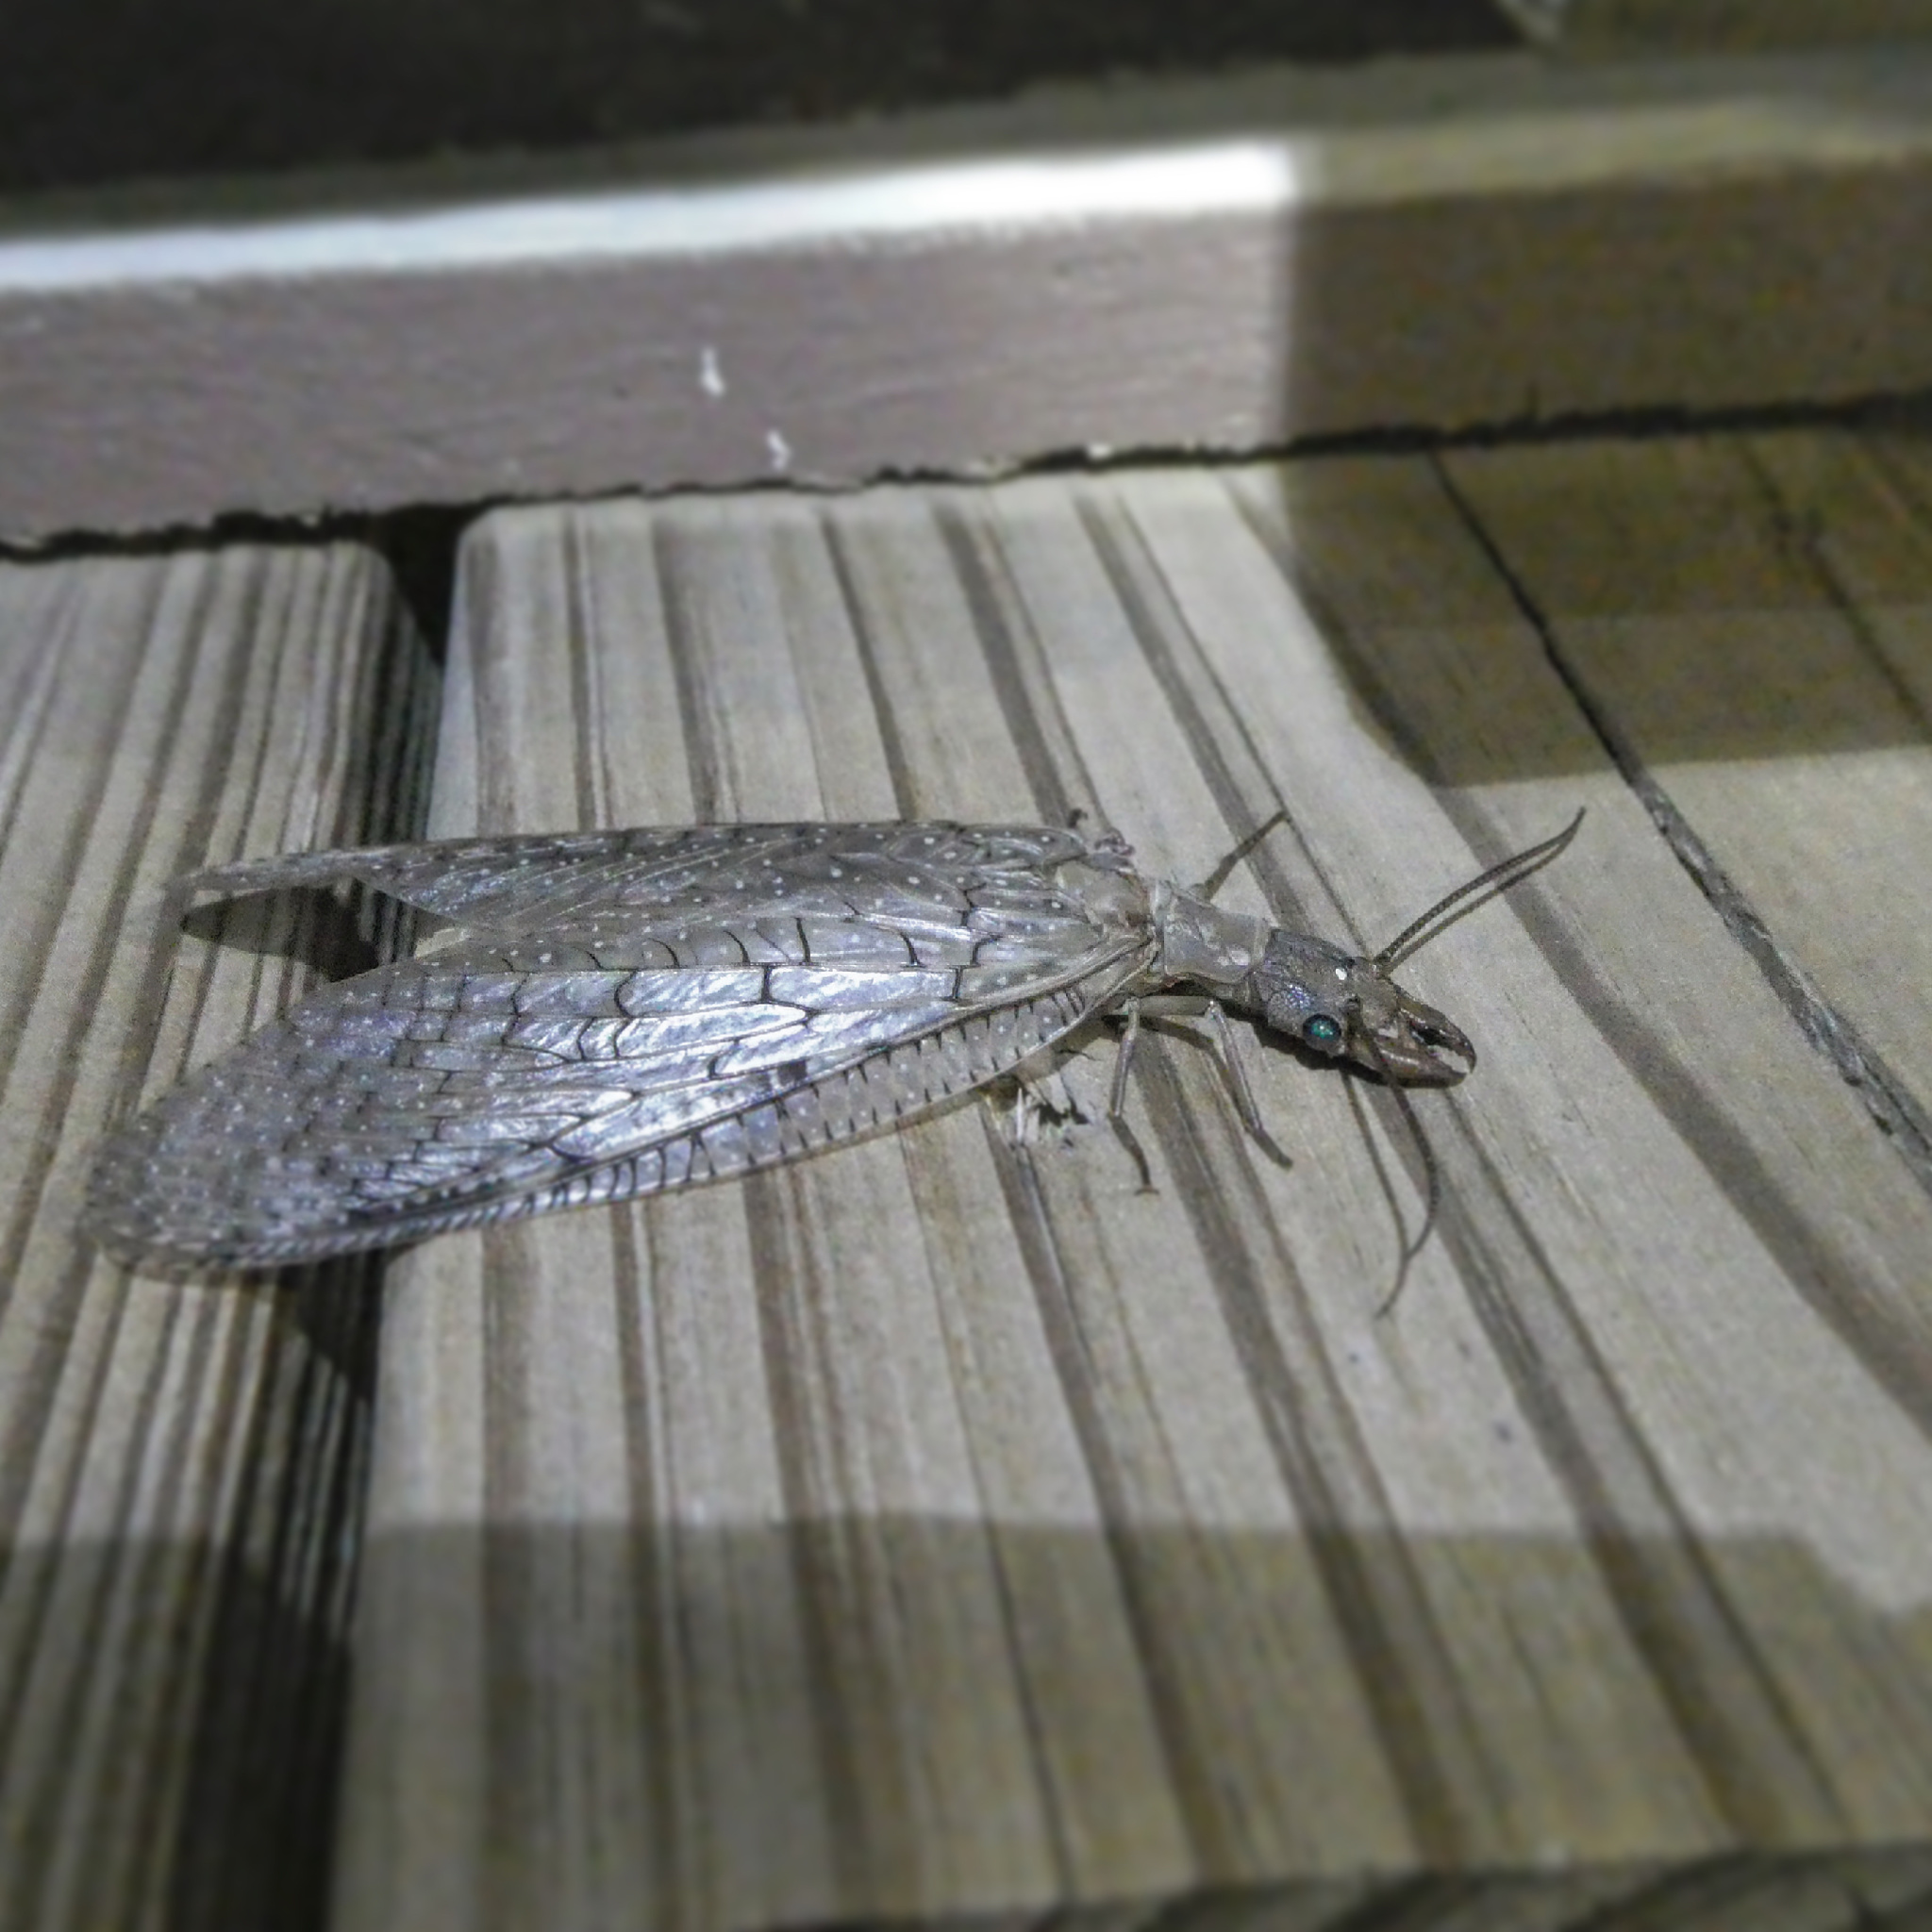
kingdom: Animalia
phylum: Arthropoda
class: Insecta
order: Megaloptera
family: Corydalidae
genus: Corydalus
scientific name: Corydalus cornutus
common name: Dobsonfly
